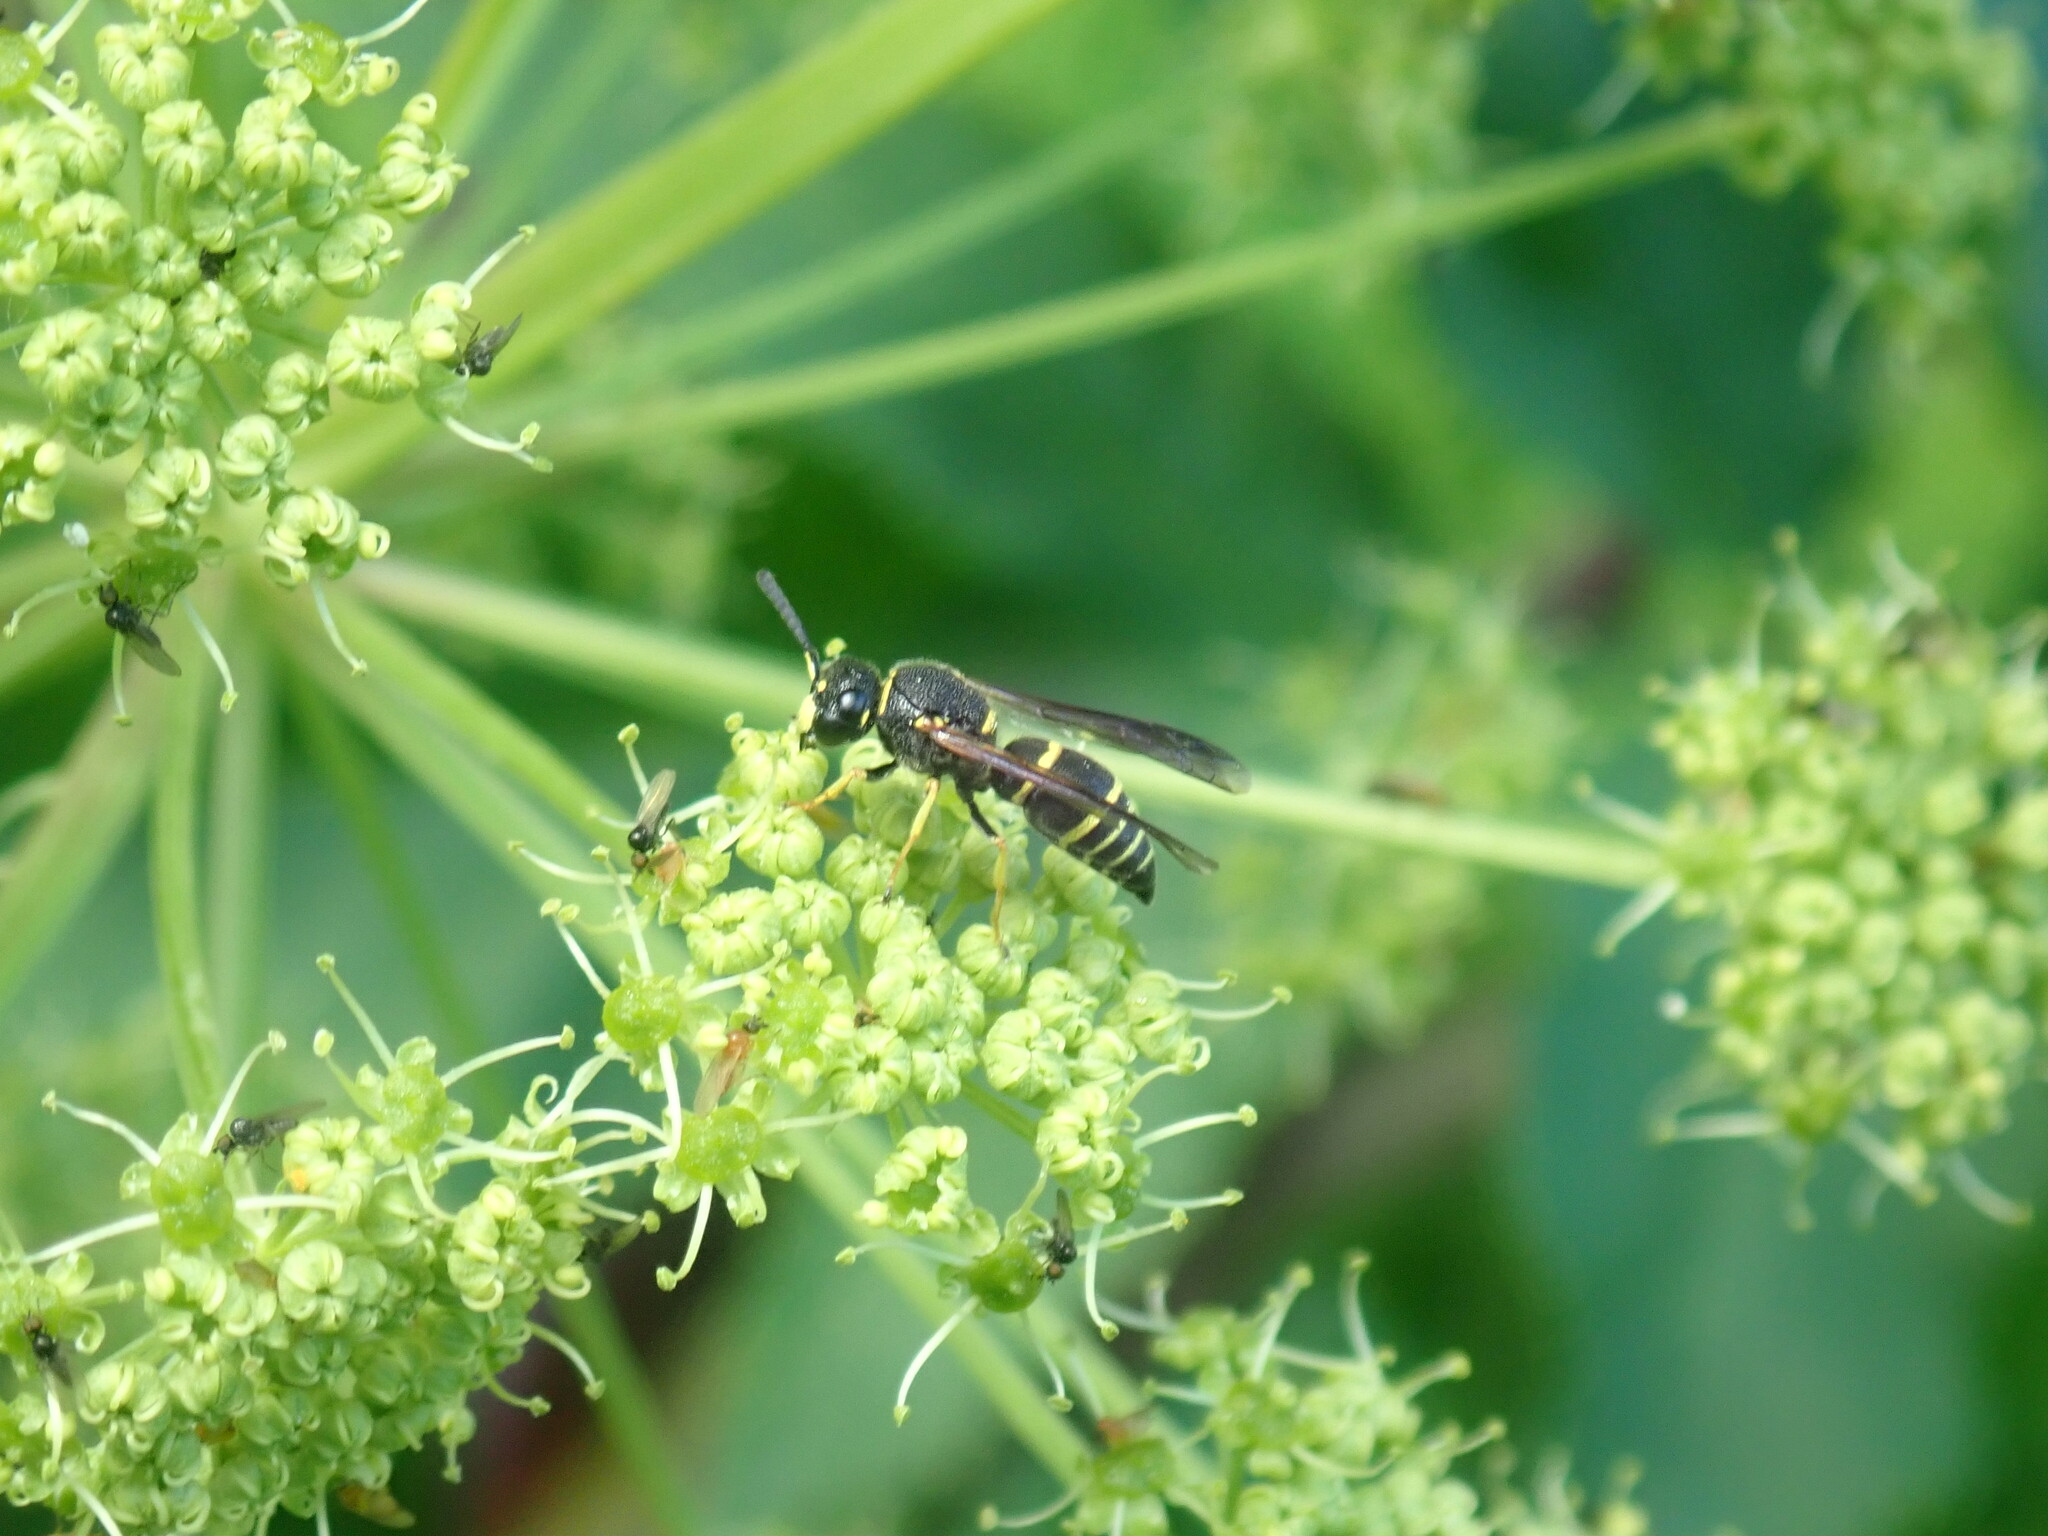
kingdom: Animalia
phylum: Arthropoda
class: Insecta
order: Hymenoptera
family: Eumenidae
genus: Euodynerus
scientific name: Euodynerus foraminatus
